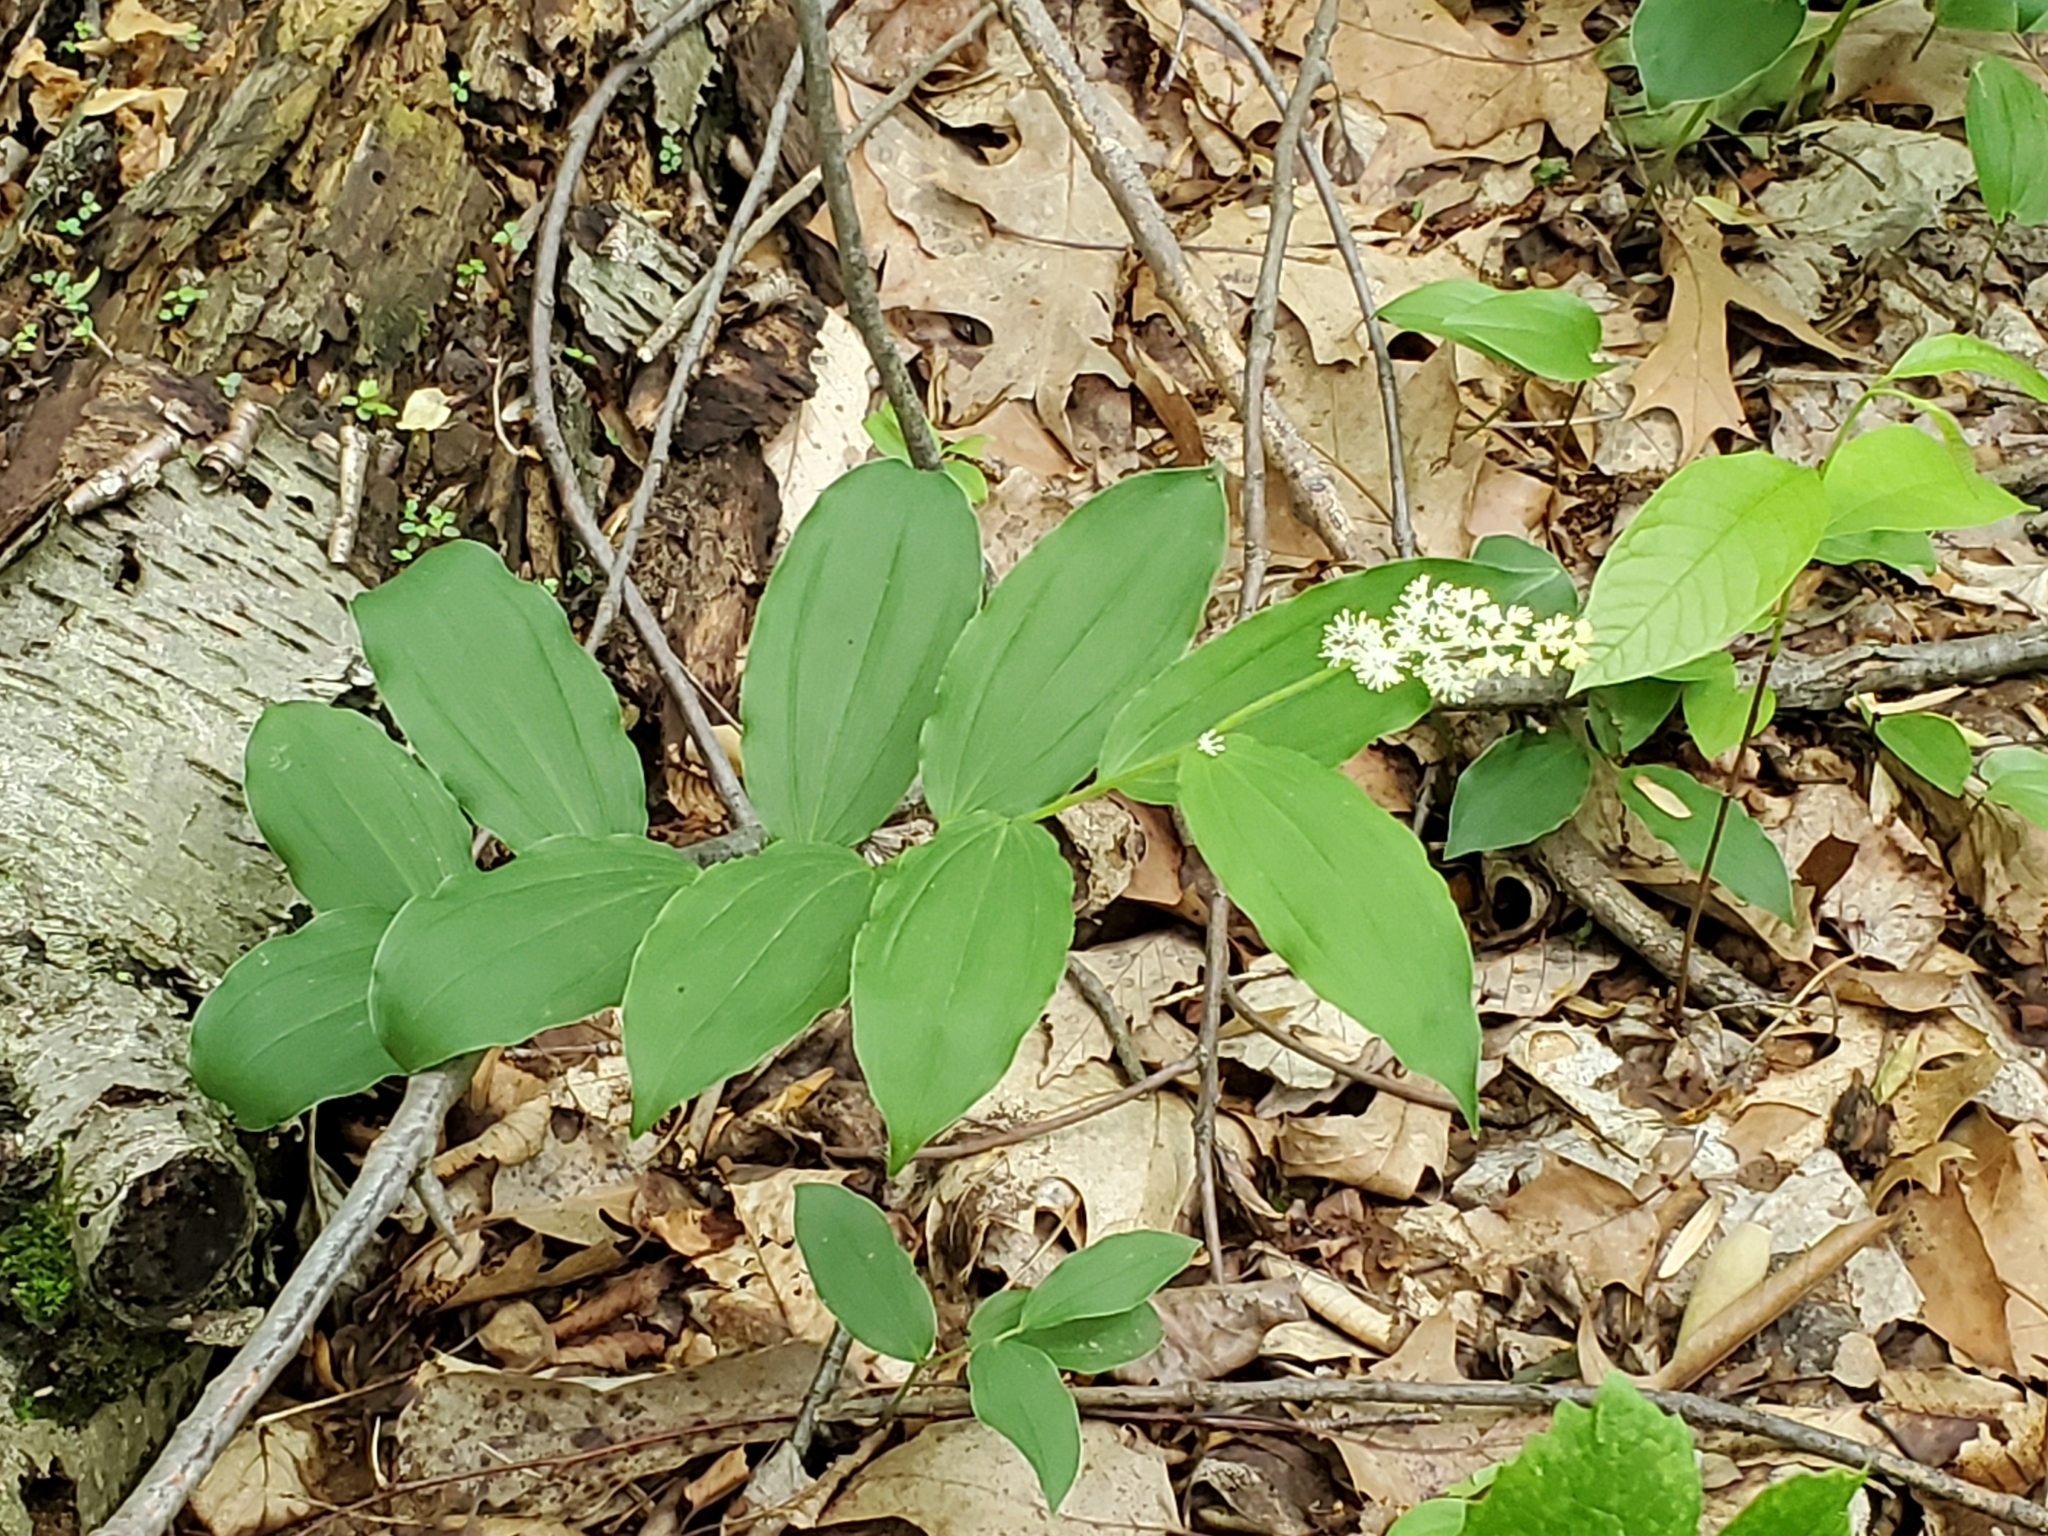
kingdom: Plantae
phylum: Tracheophyta
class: Liliopsida
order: Asparagales
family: Asparagaceae
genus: Maianthemum
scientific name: Maianthemum racemosum
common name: False spikenard
